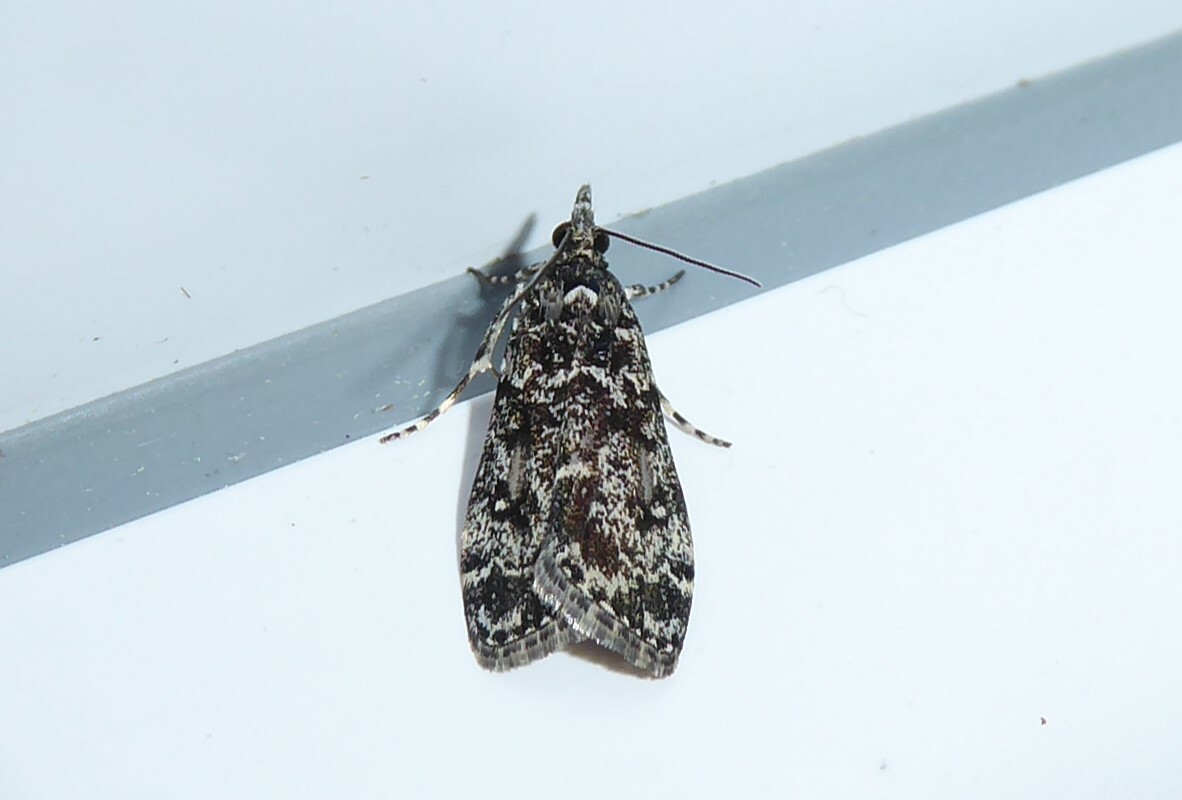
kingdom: Animalia
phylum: Arthropoda
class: Insecta
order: Lepidoptera
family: Crambidae
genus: Eudonia
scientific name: Eudonia philerga
